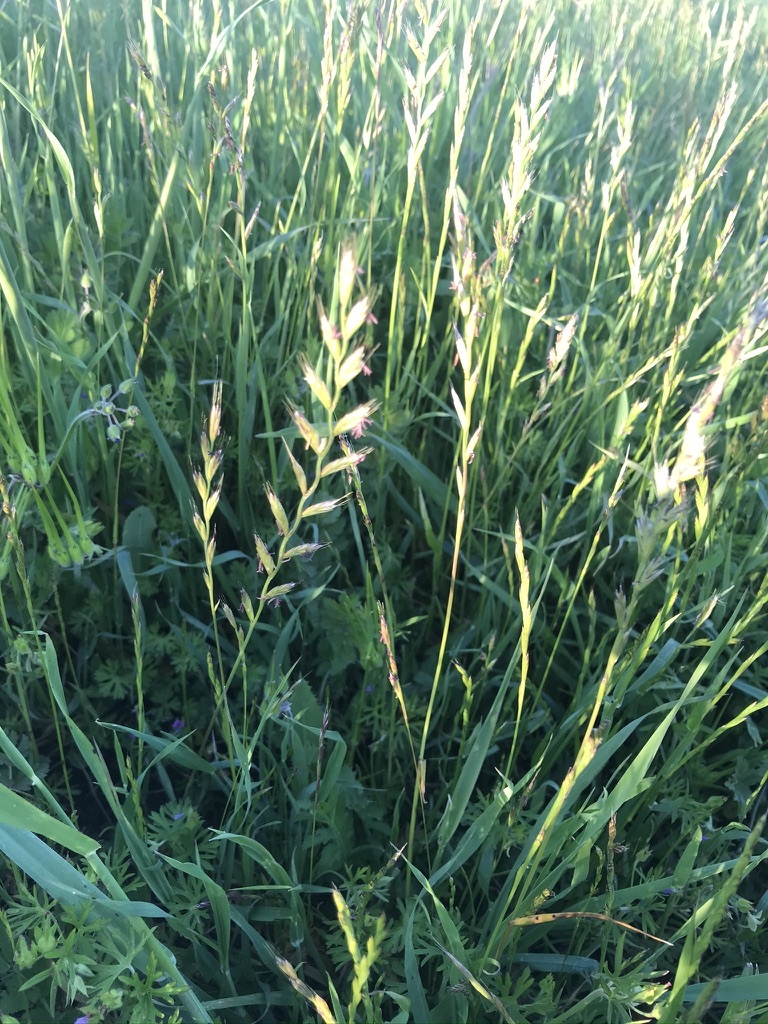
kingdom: Plantae
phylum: Tracheophyta
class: Liliopsida
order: Poales
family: Poaceae
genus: Lolium
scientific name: Lolium multiflorum
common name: Annual ryegrass
